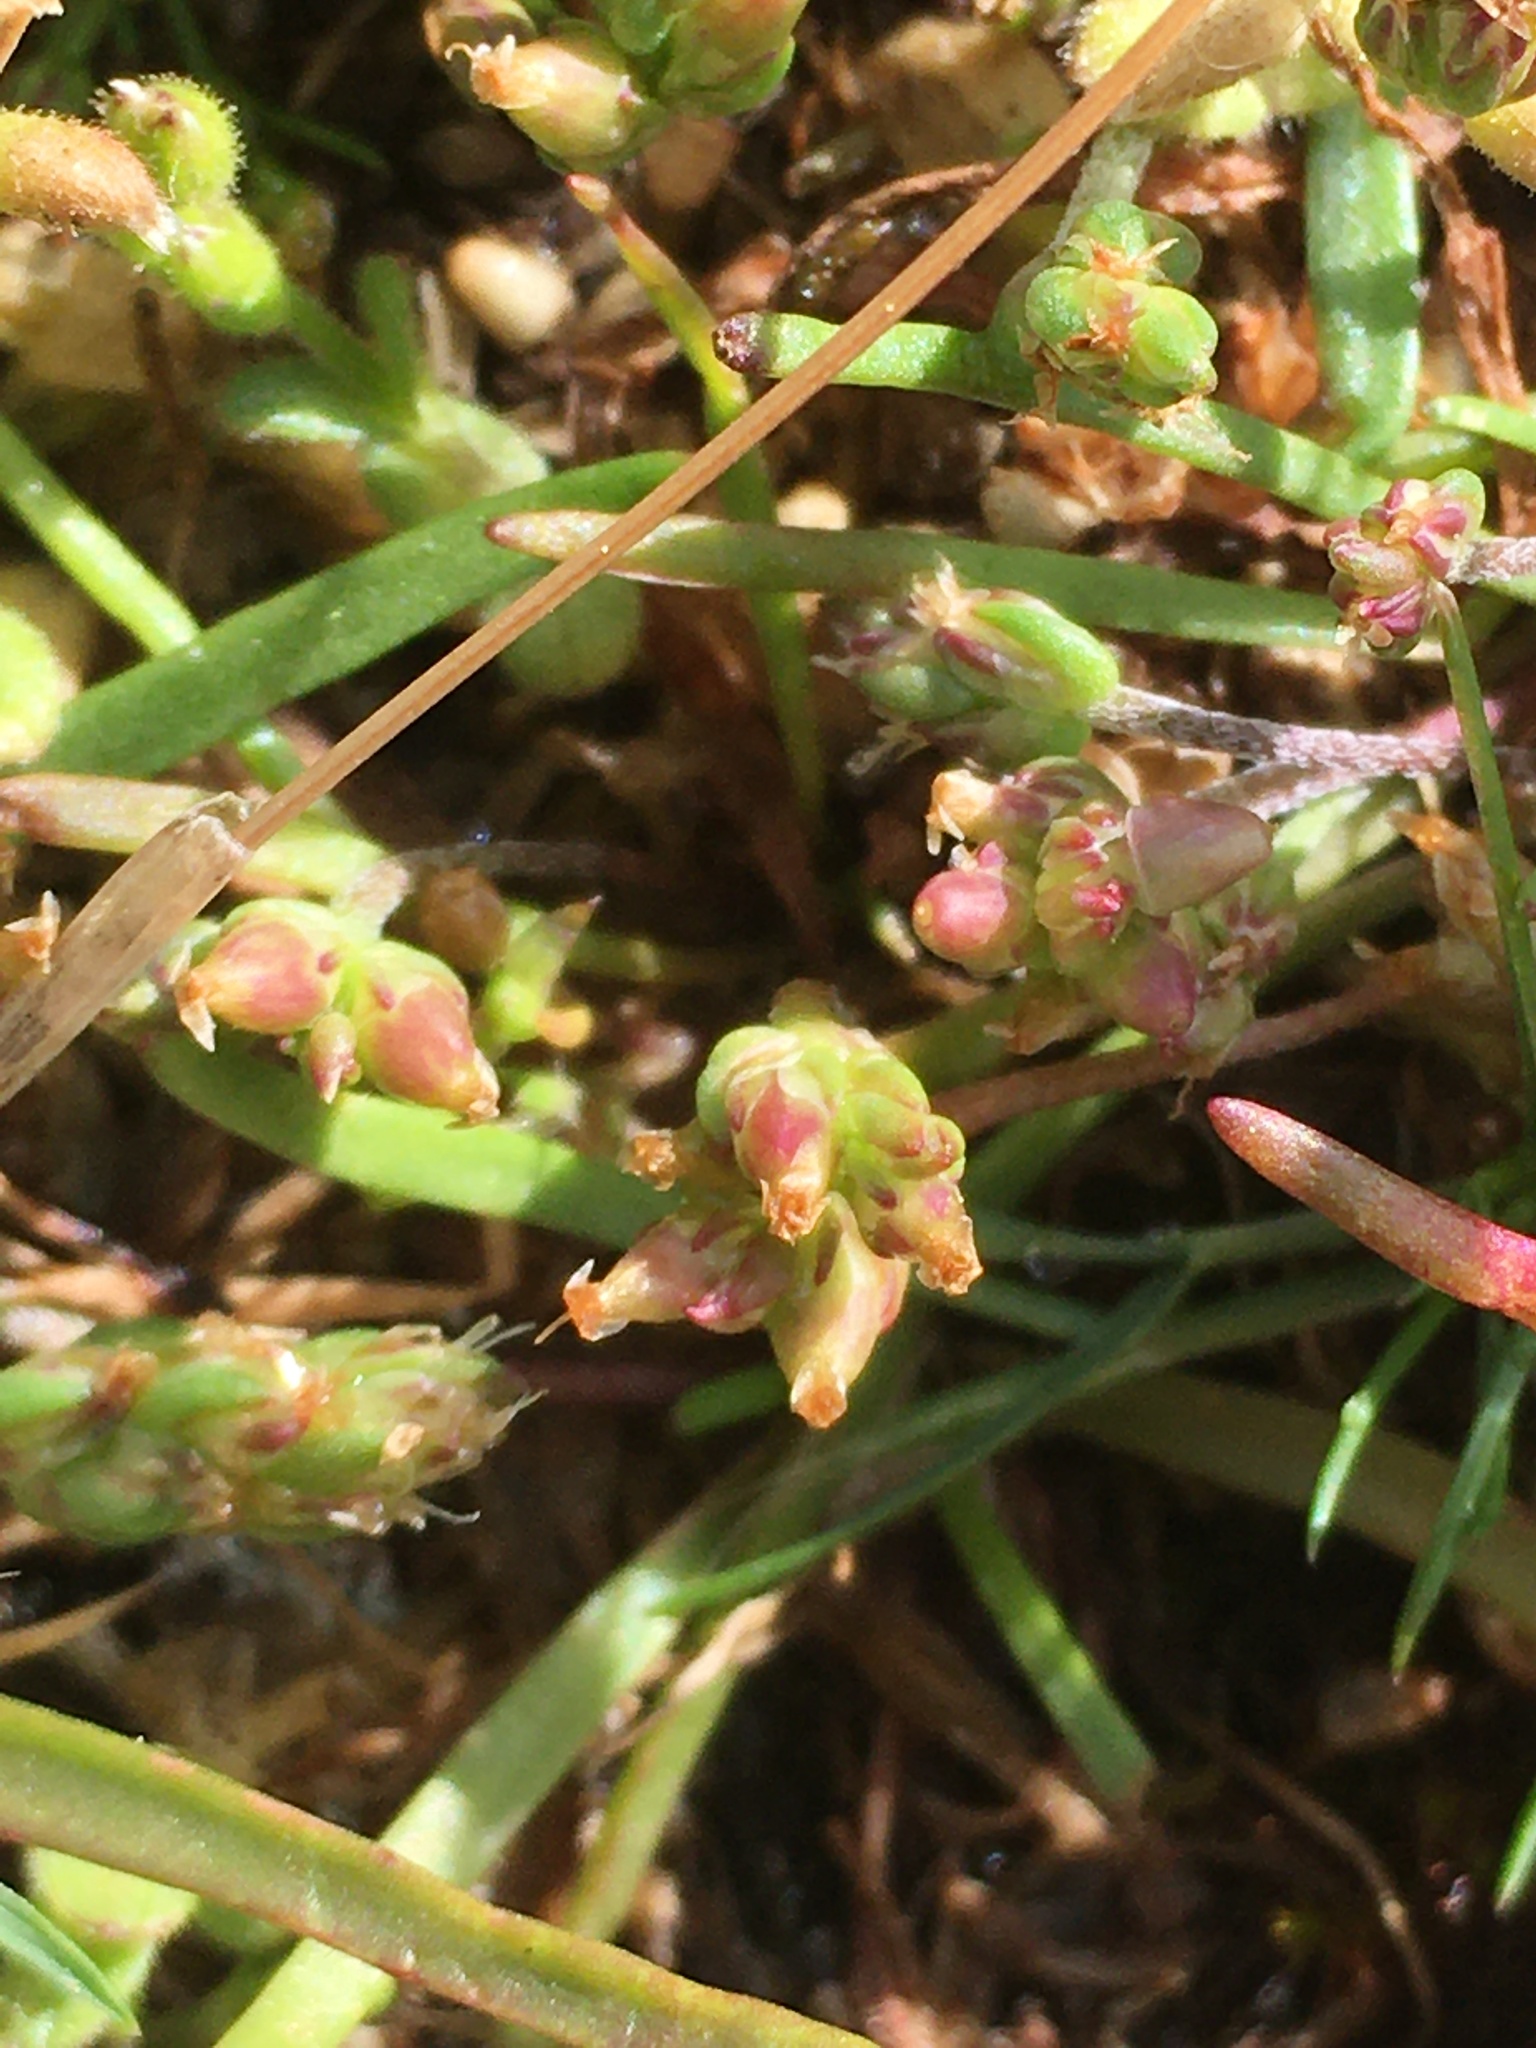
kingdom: Plantae
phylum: Tracheophyta
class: Magnoliopsida
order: Lamiales
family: Plantaginaceae
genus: Plantago
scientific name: Plantago elongata
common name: Linear-leaved plantain
